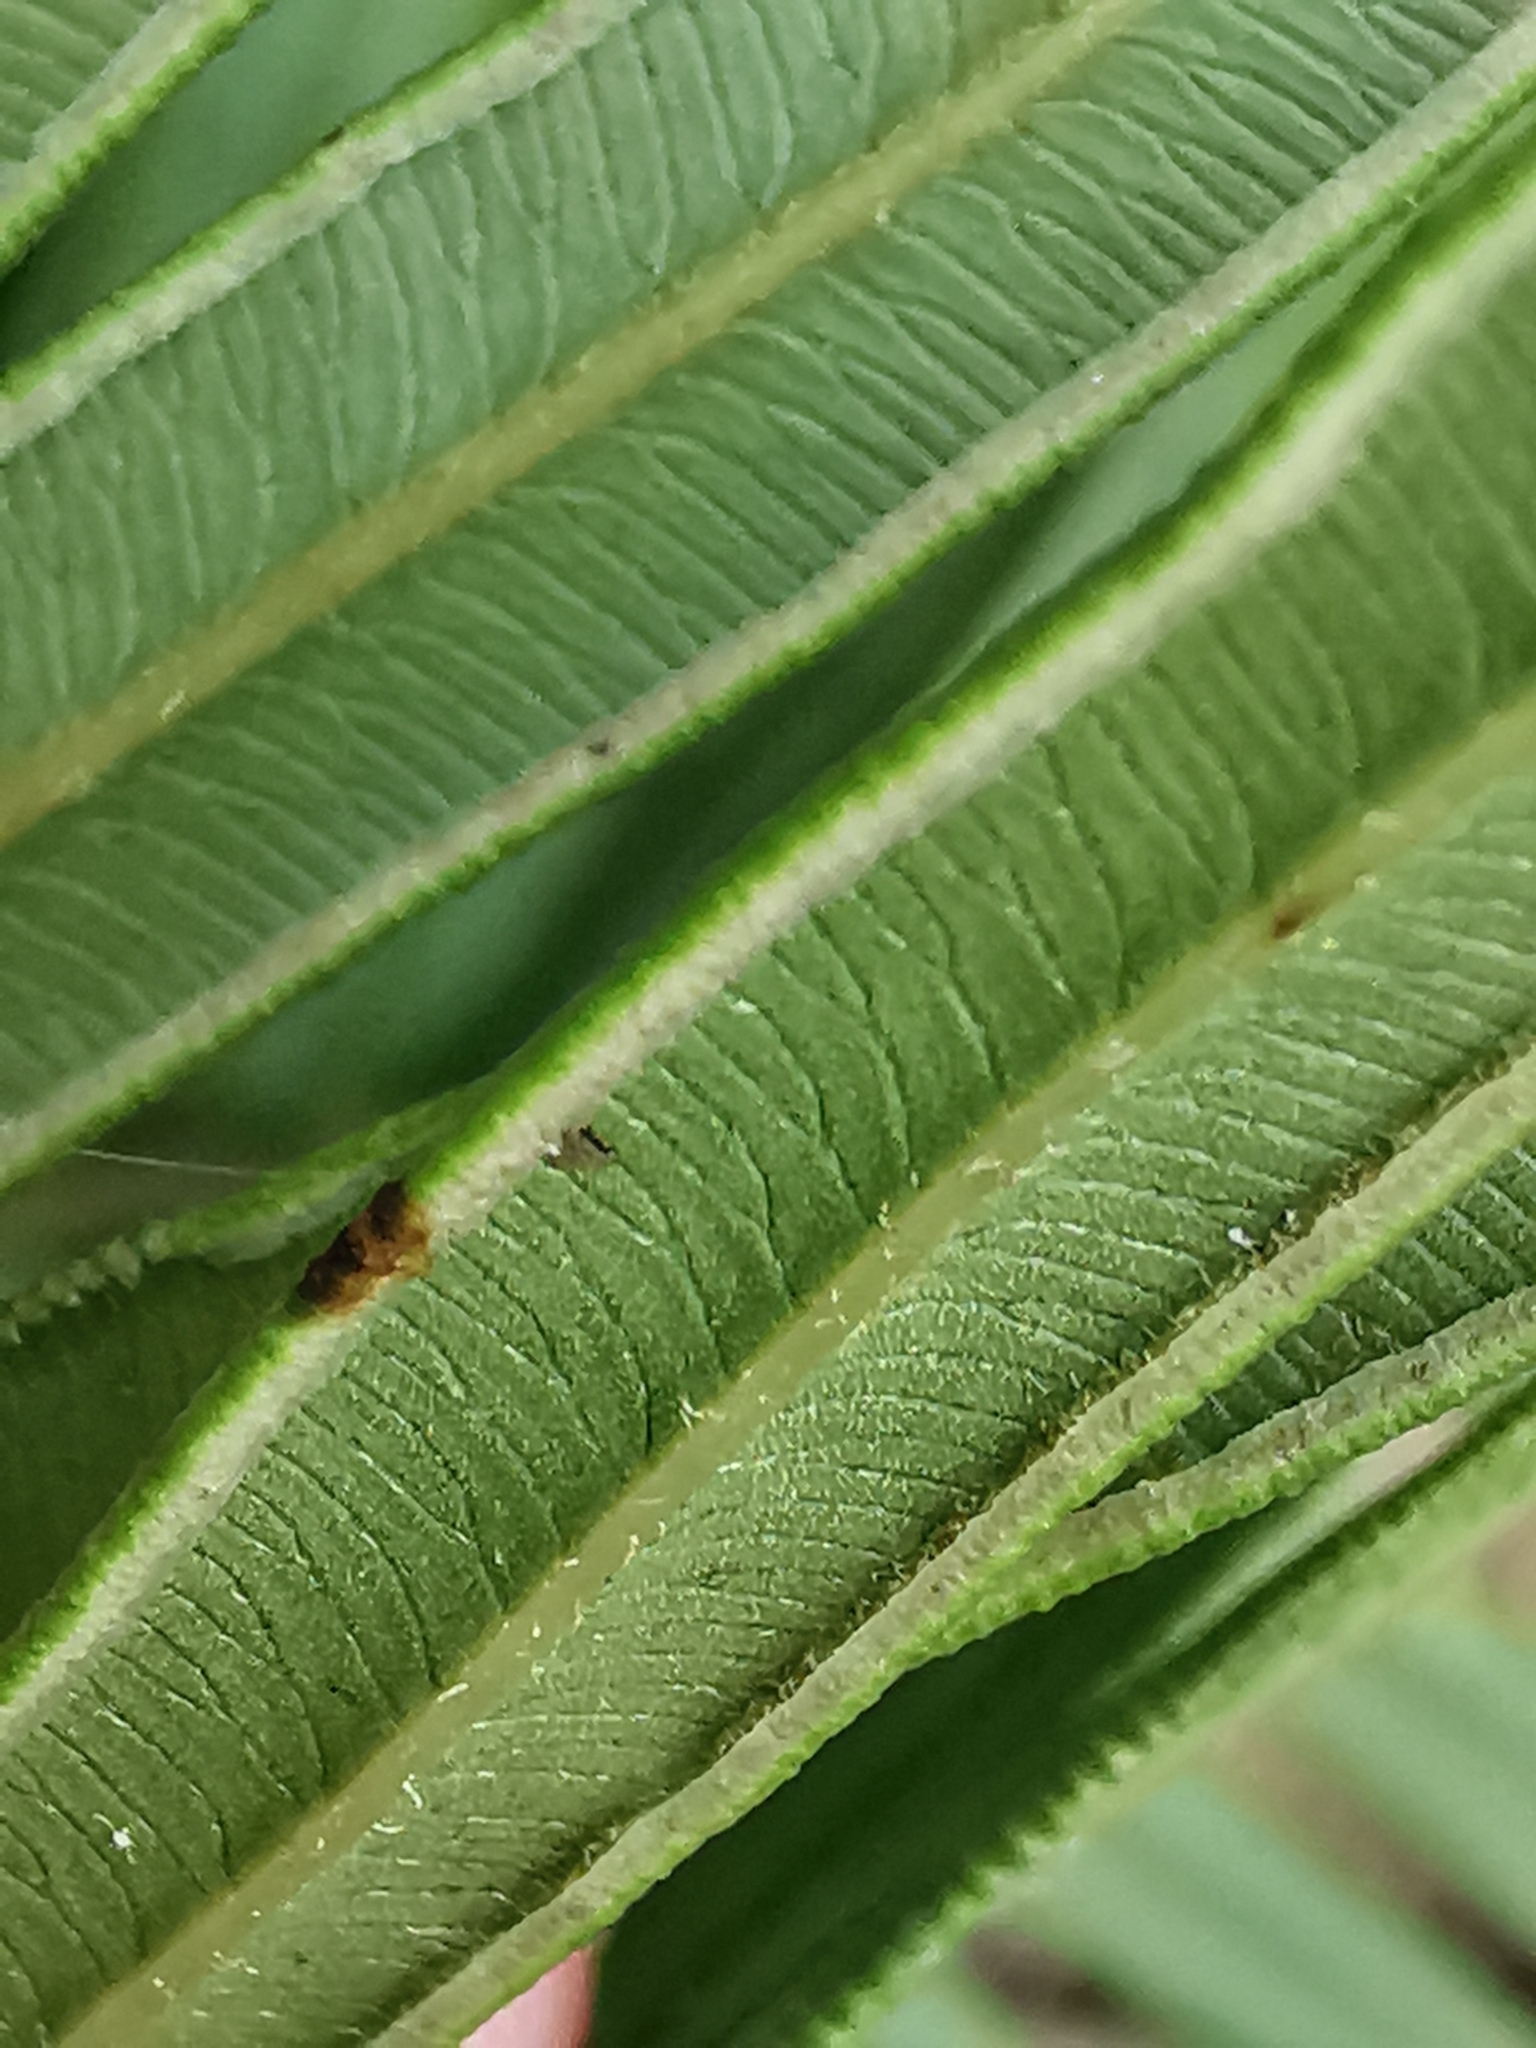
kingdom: Plantae
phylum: Tracheophyta
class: Polypodiopsida
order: Polypodiales
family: Pteridaceae
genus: Pteris
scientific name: Pteris vittata
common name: Ladder brake
